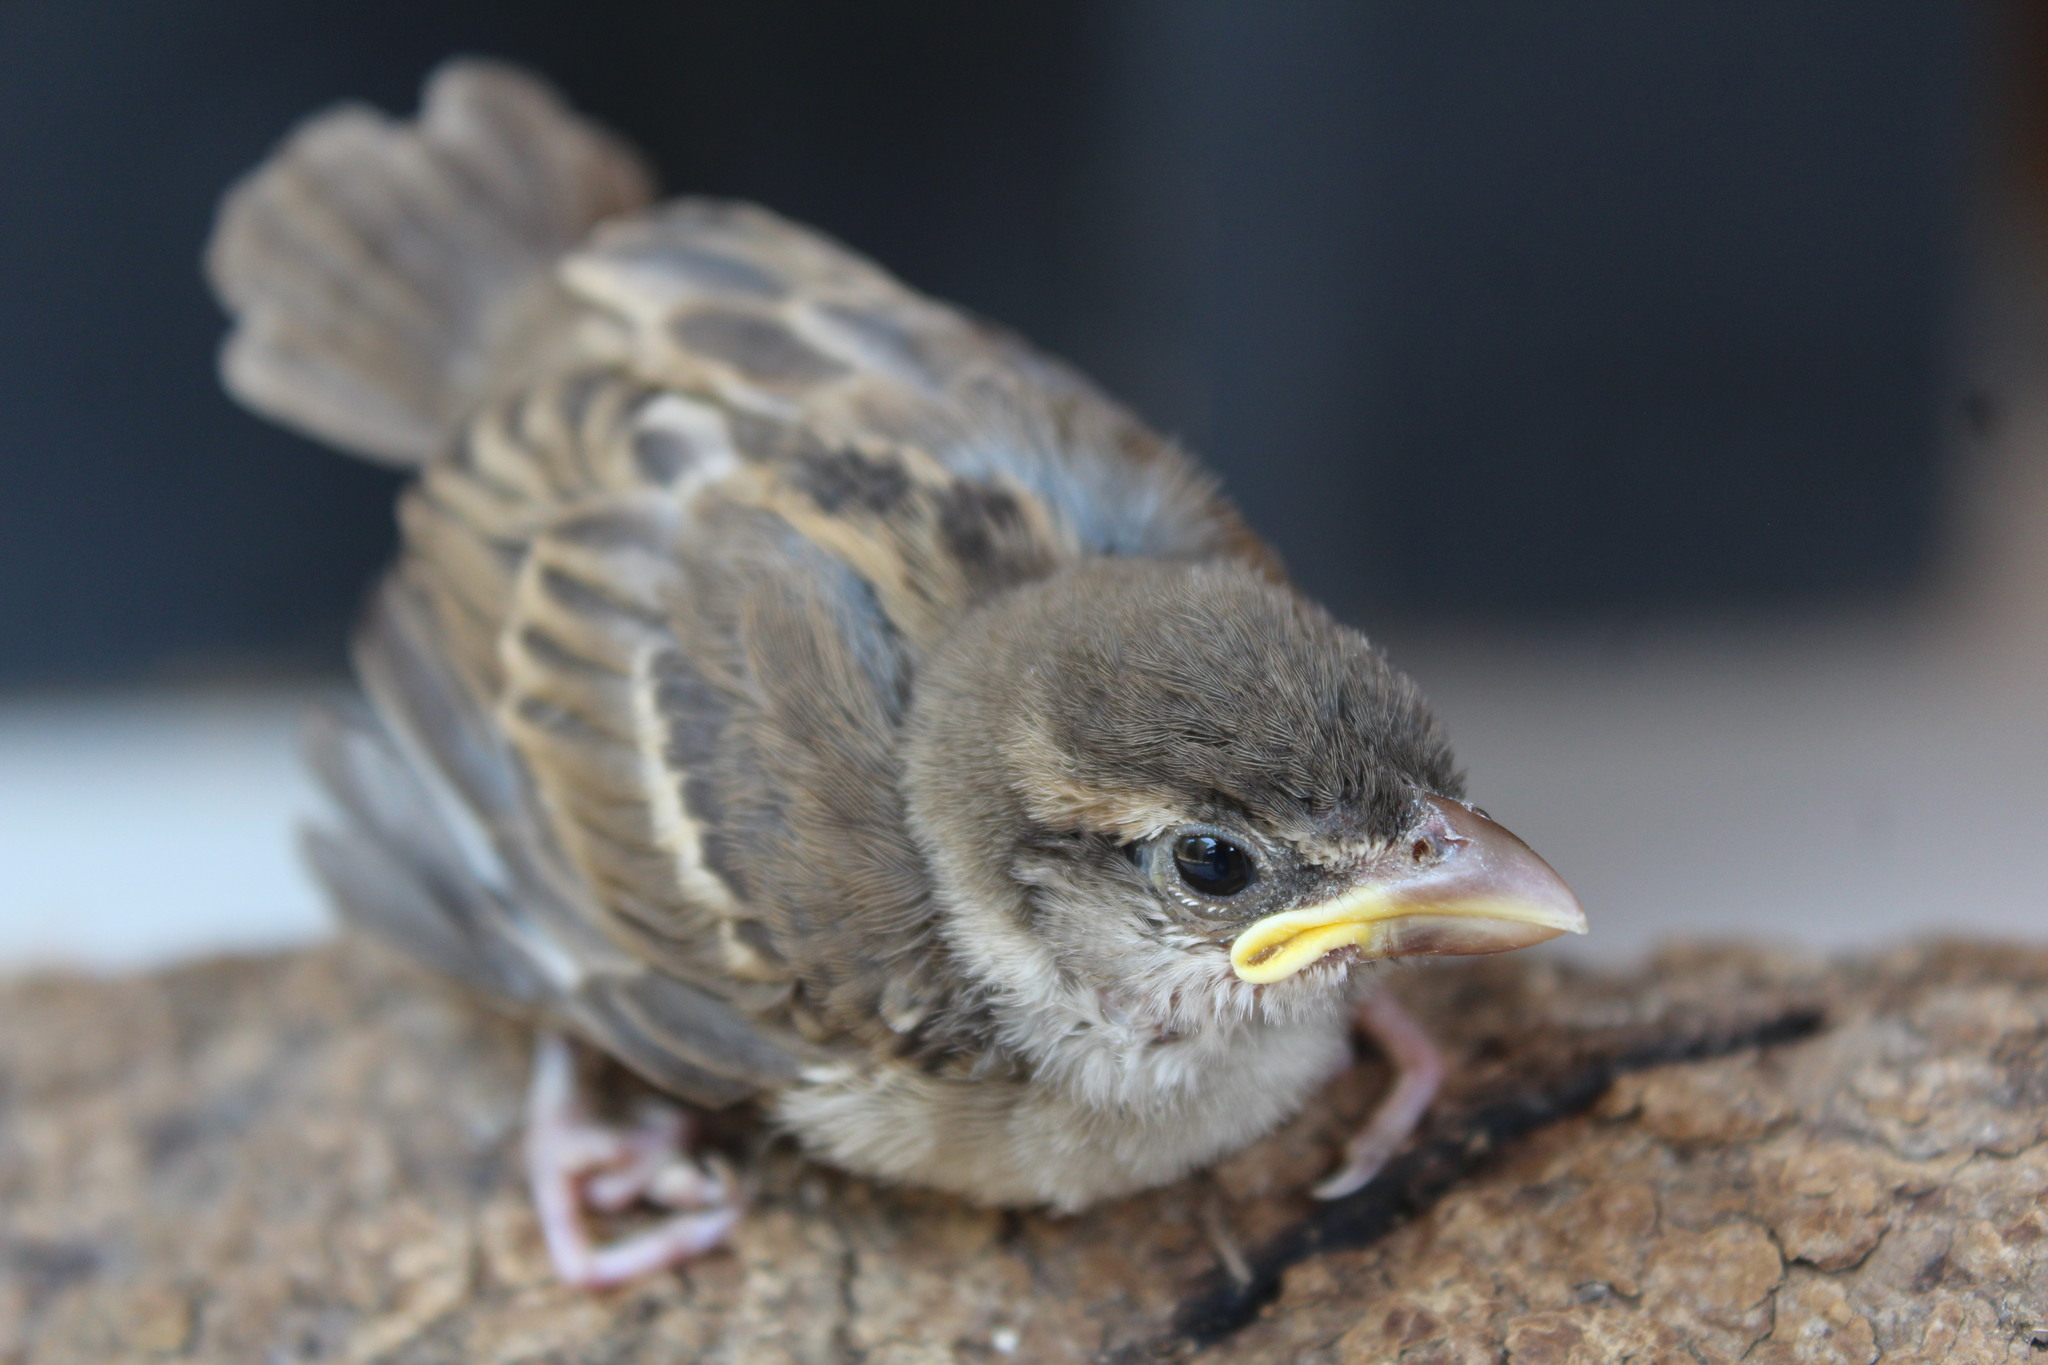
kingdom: Animalia
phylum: Chordata
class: Aves
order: Passeriformes
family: Passeridae
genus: Passer
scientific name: Passer domesticus
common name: House sparrow
